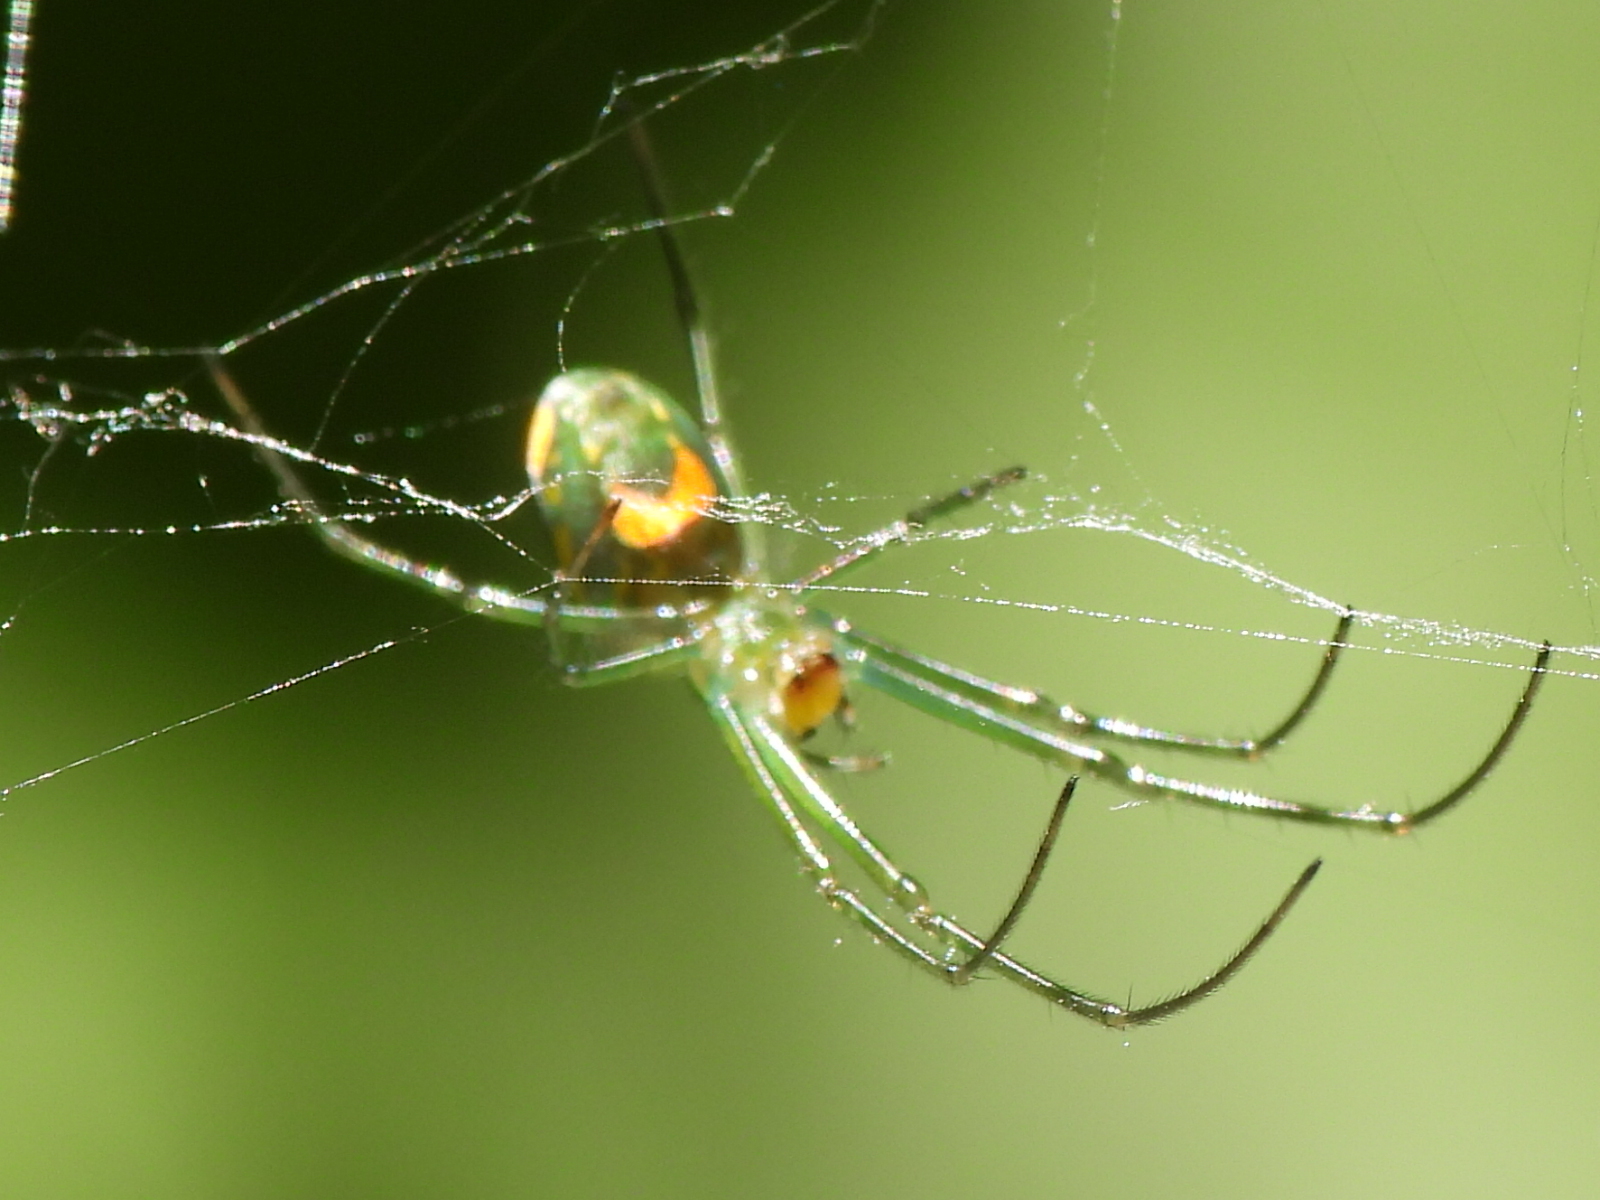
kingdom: Animalia
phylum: Arthropoda
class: Arachnida
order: Araneae
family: Tetragnathidae
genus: Leucauge
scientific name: Leucauge argyrobapta
